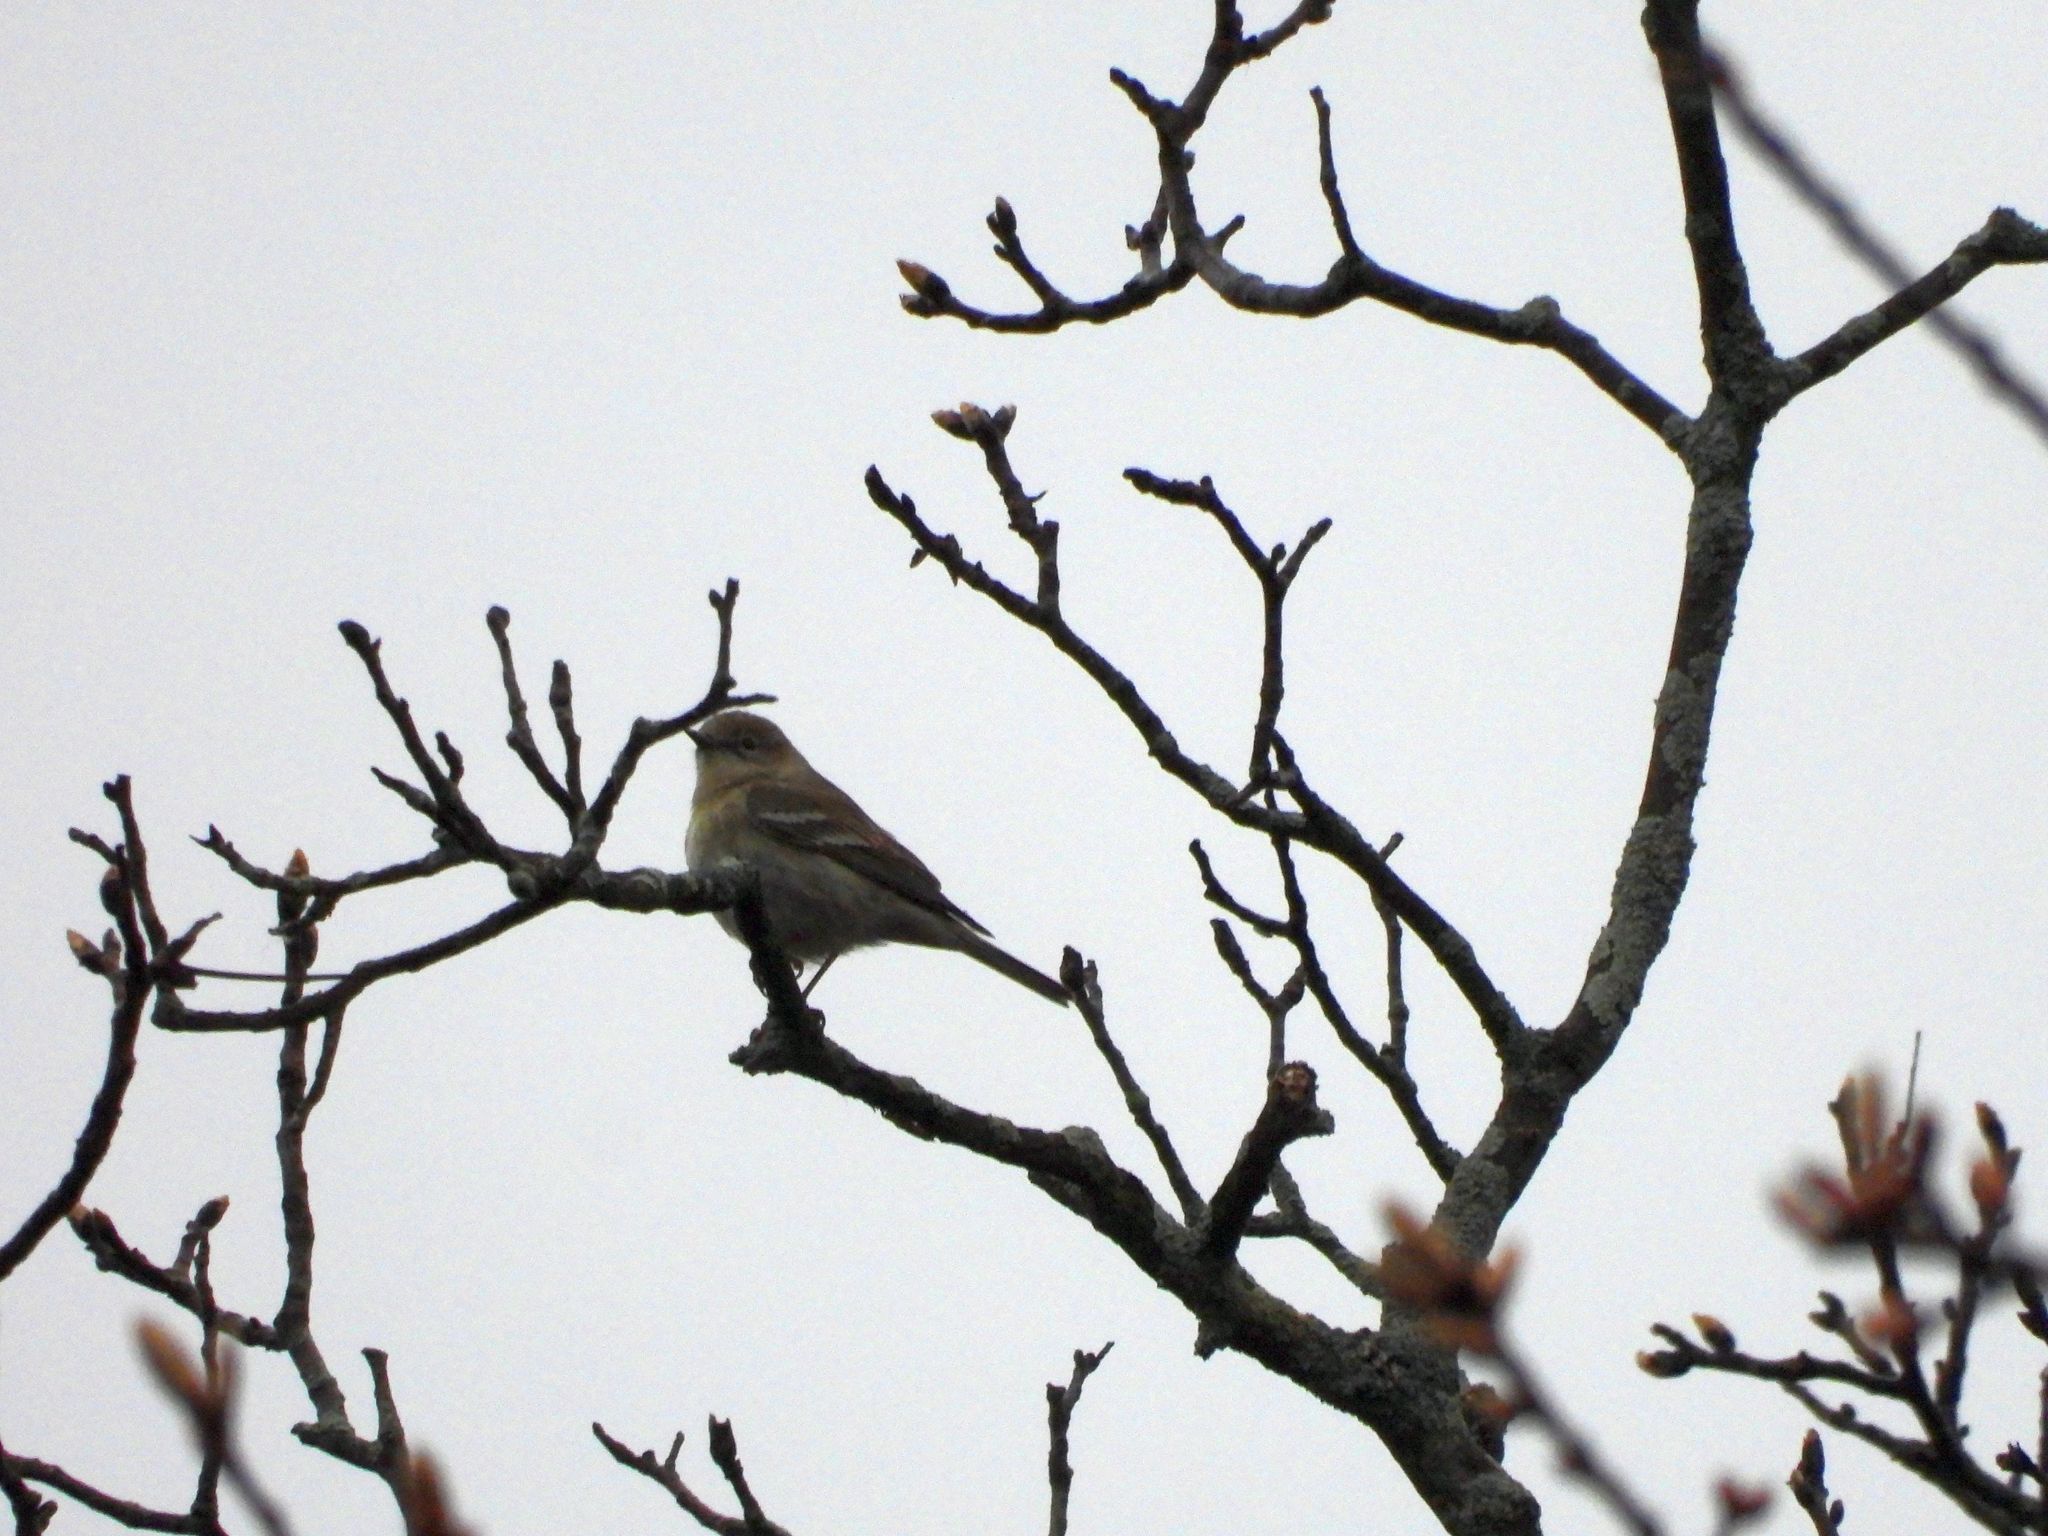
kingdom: Animalia
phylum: Chordata
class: Aves
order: Passeriformes
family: Parulidae
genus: Setophaga
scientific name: Setophaga pinus
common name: Pine warbler
